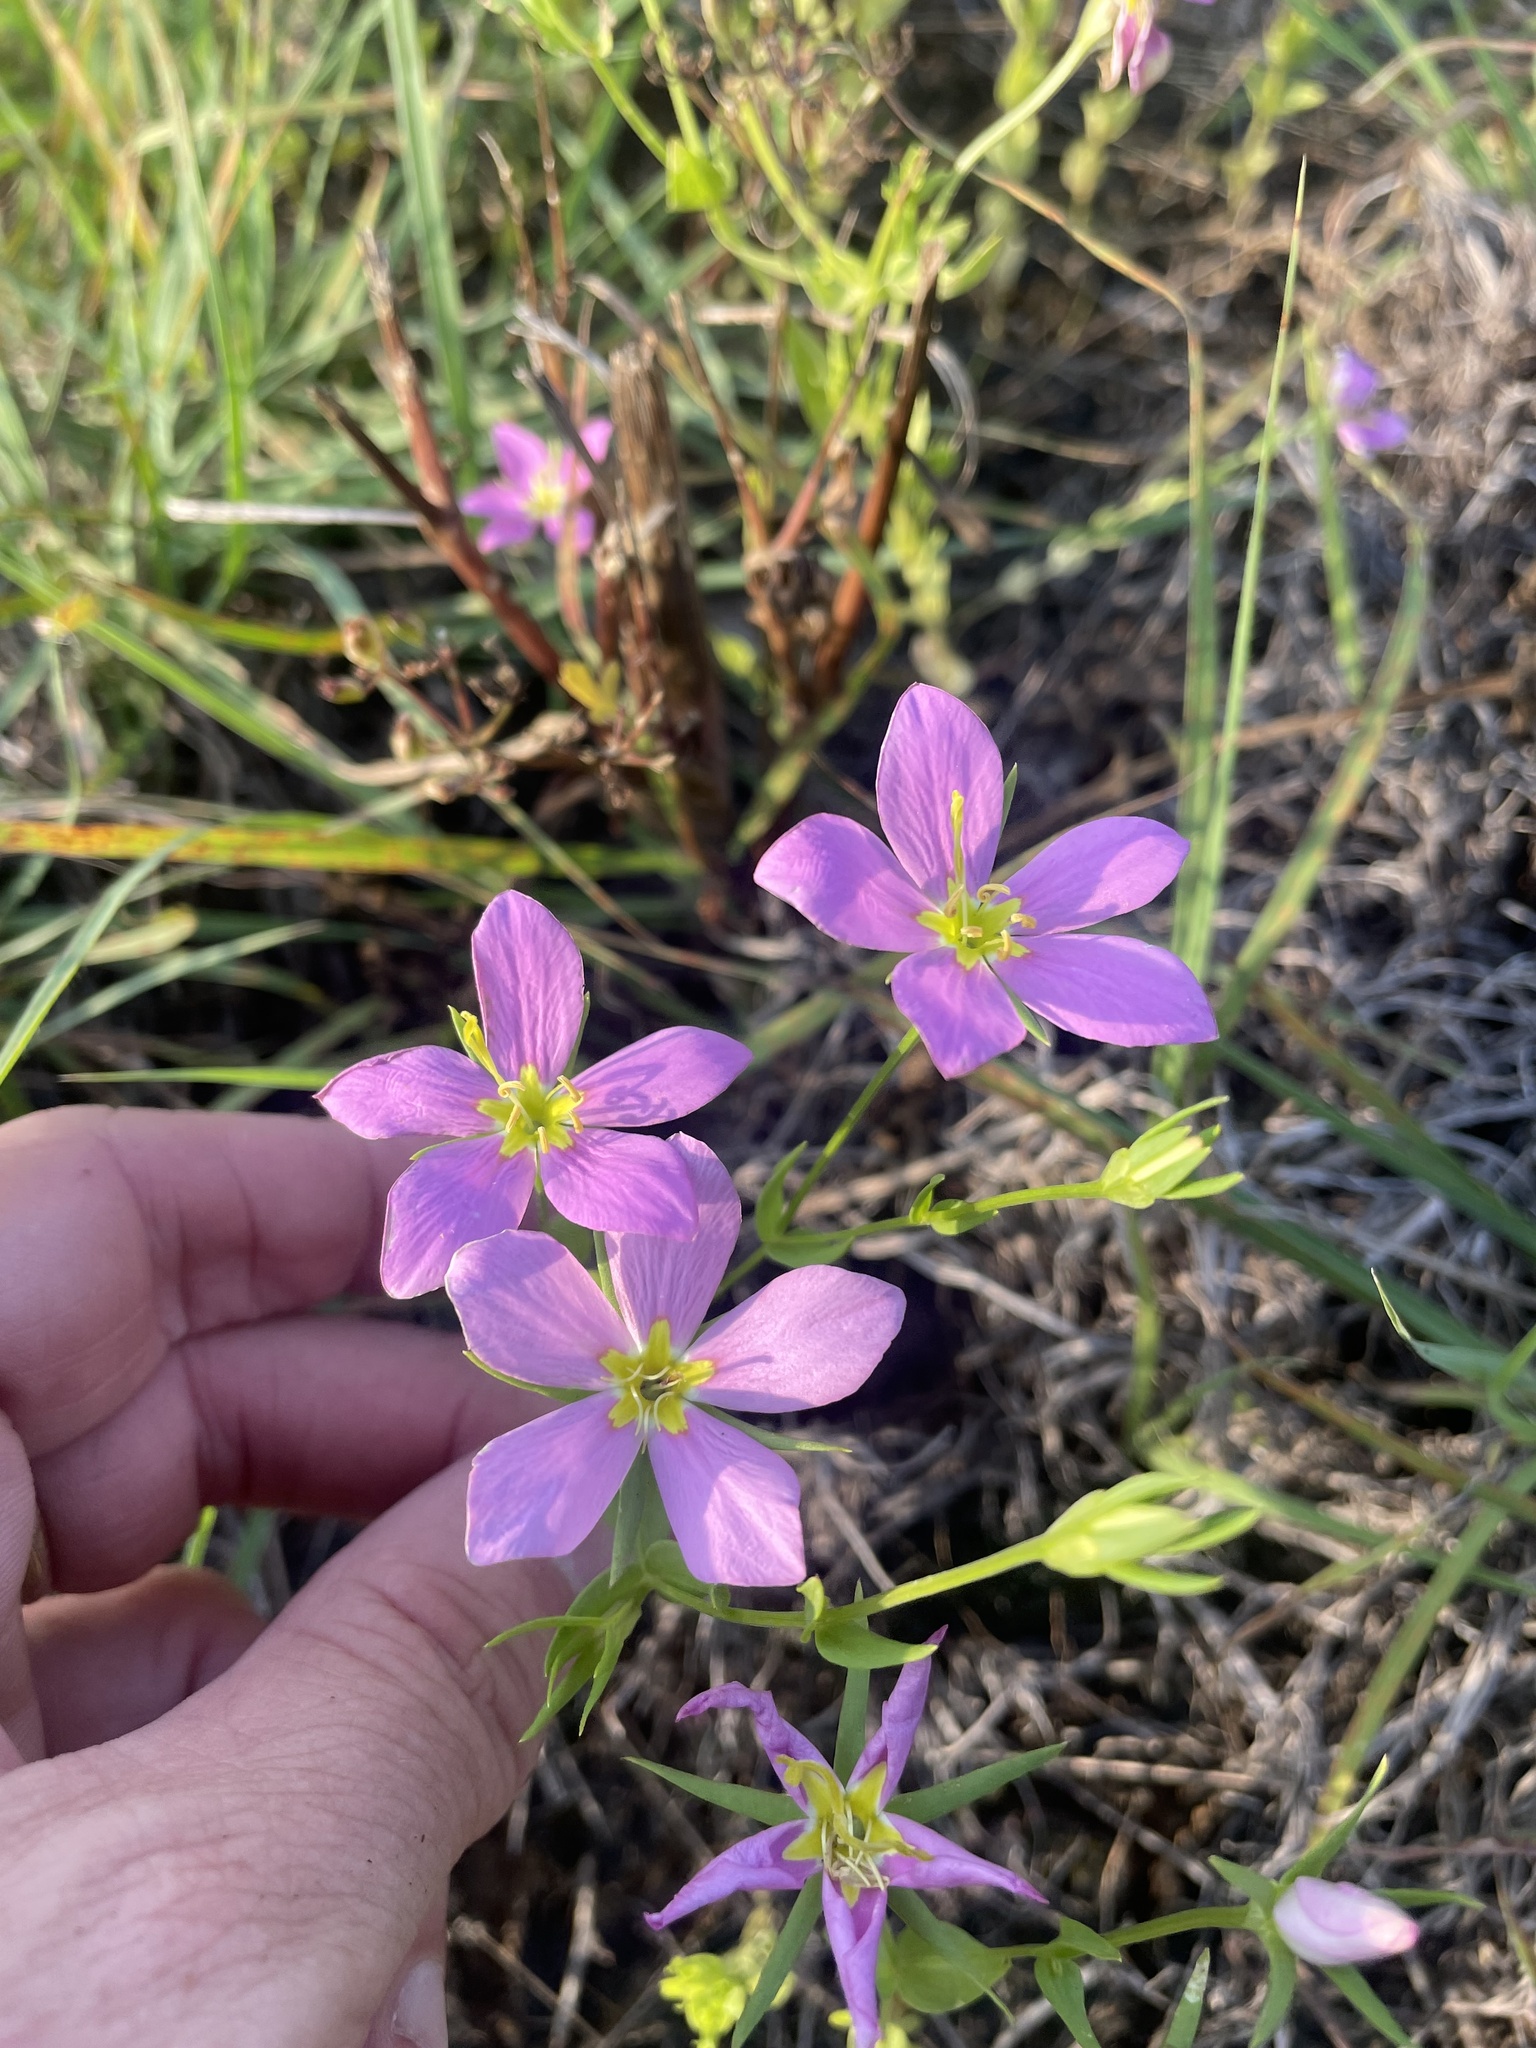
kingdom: Plantae
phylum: Tracheophyta
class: Magnoliopsida
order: Gentianales
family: Gentianaceae
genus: Sabatia
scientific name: Sabatia campestris
